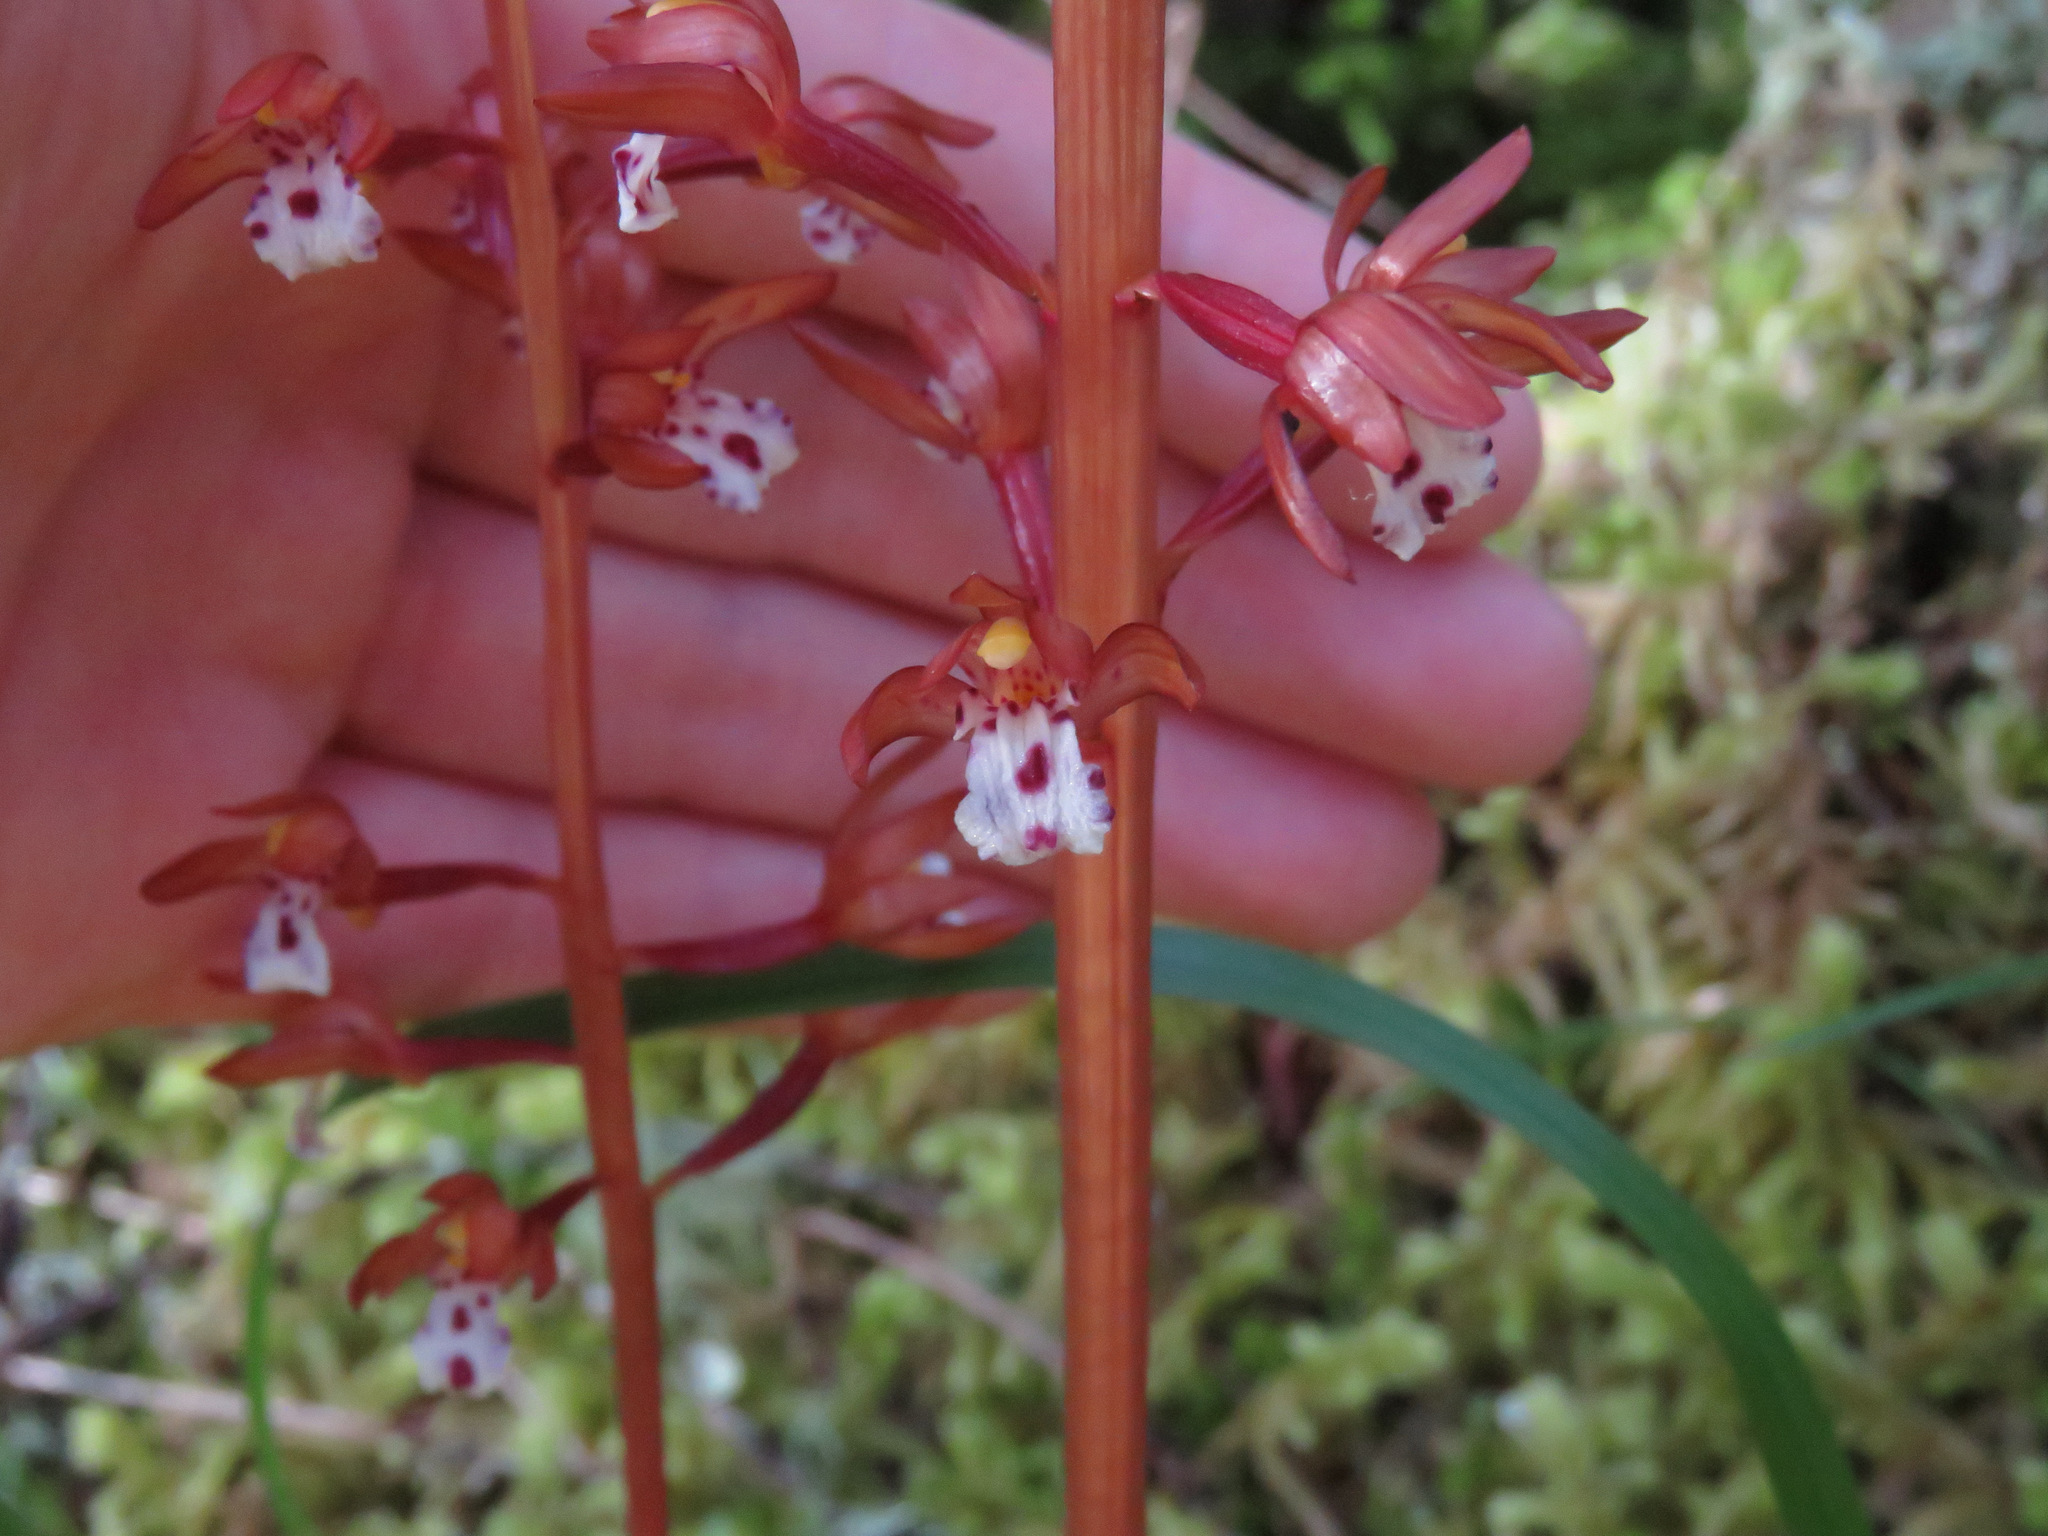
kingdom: Plantae
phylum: Tracheophyta
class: Liliopsida
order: Asparagales
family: Orchidaceae
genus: Corallorhiza
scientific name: Corallorhiza maculata
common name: Spotted coralroot
